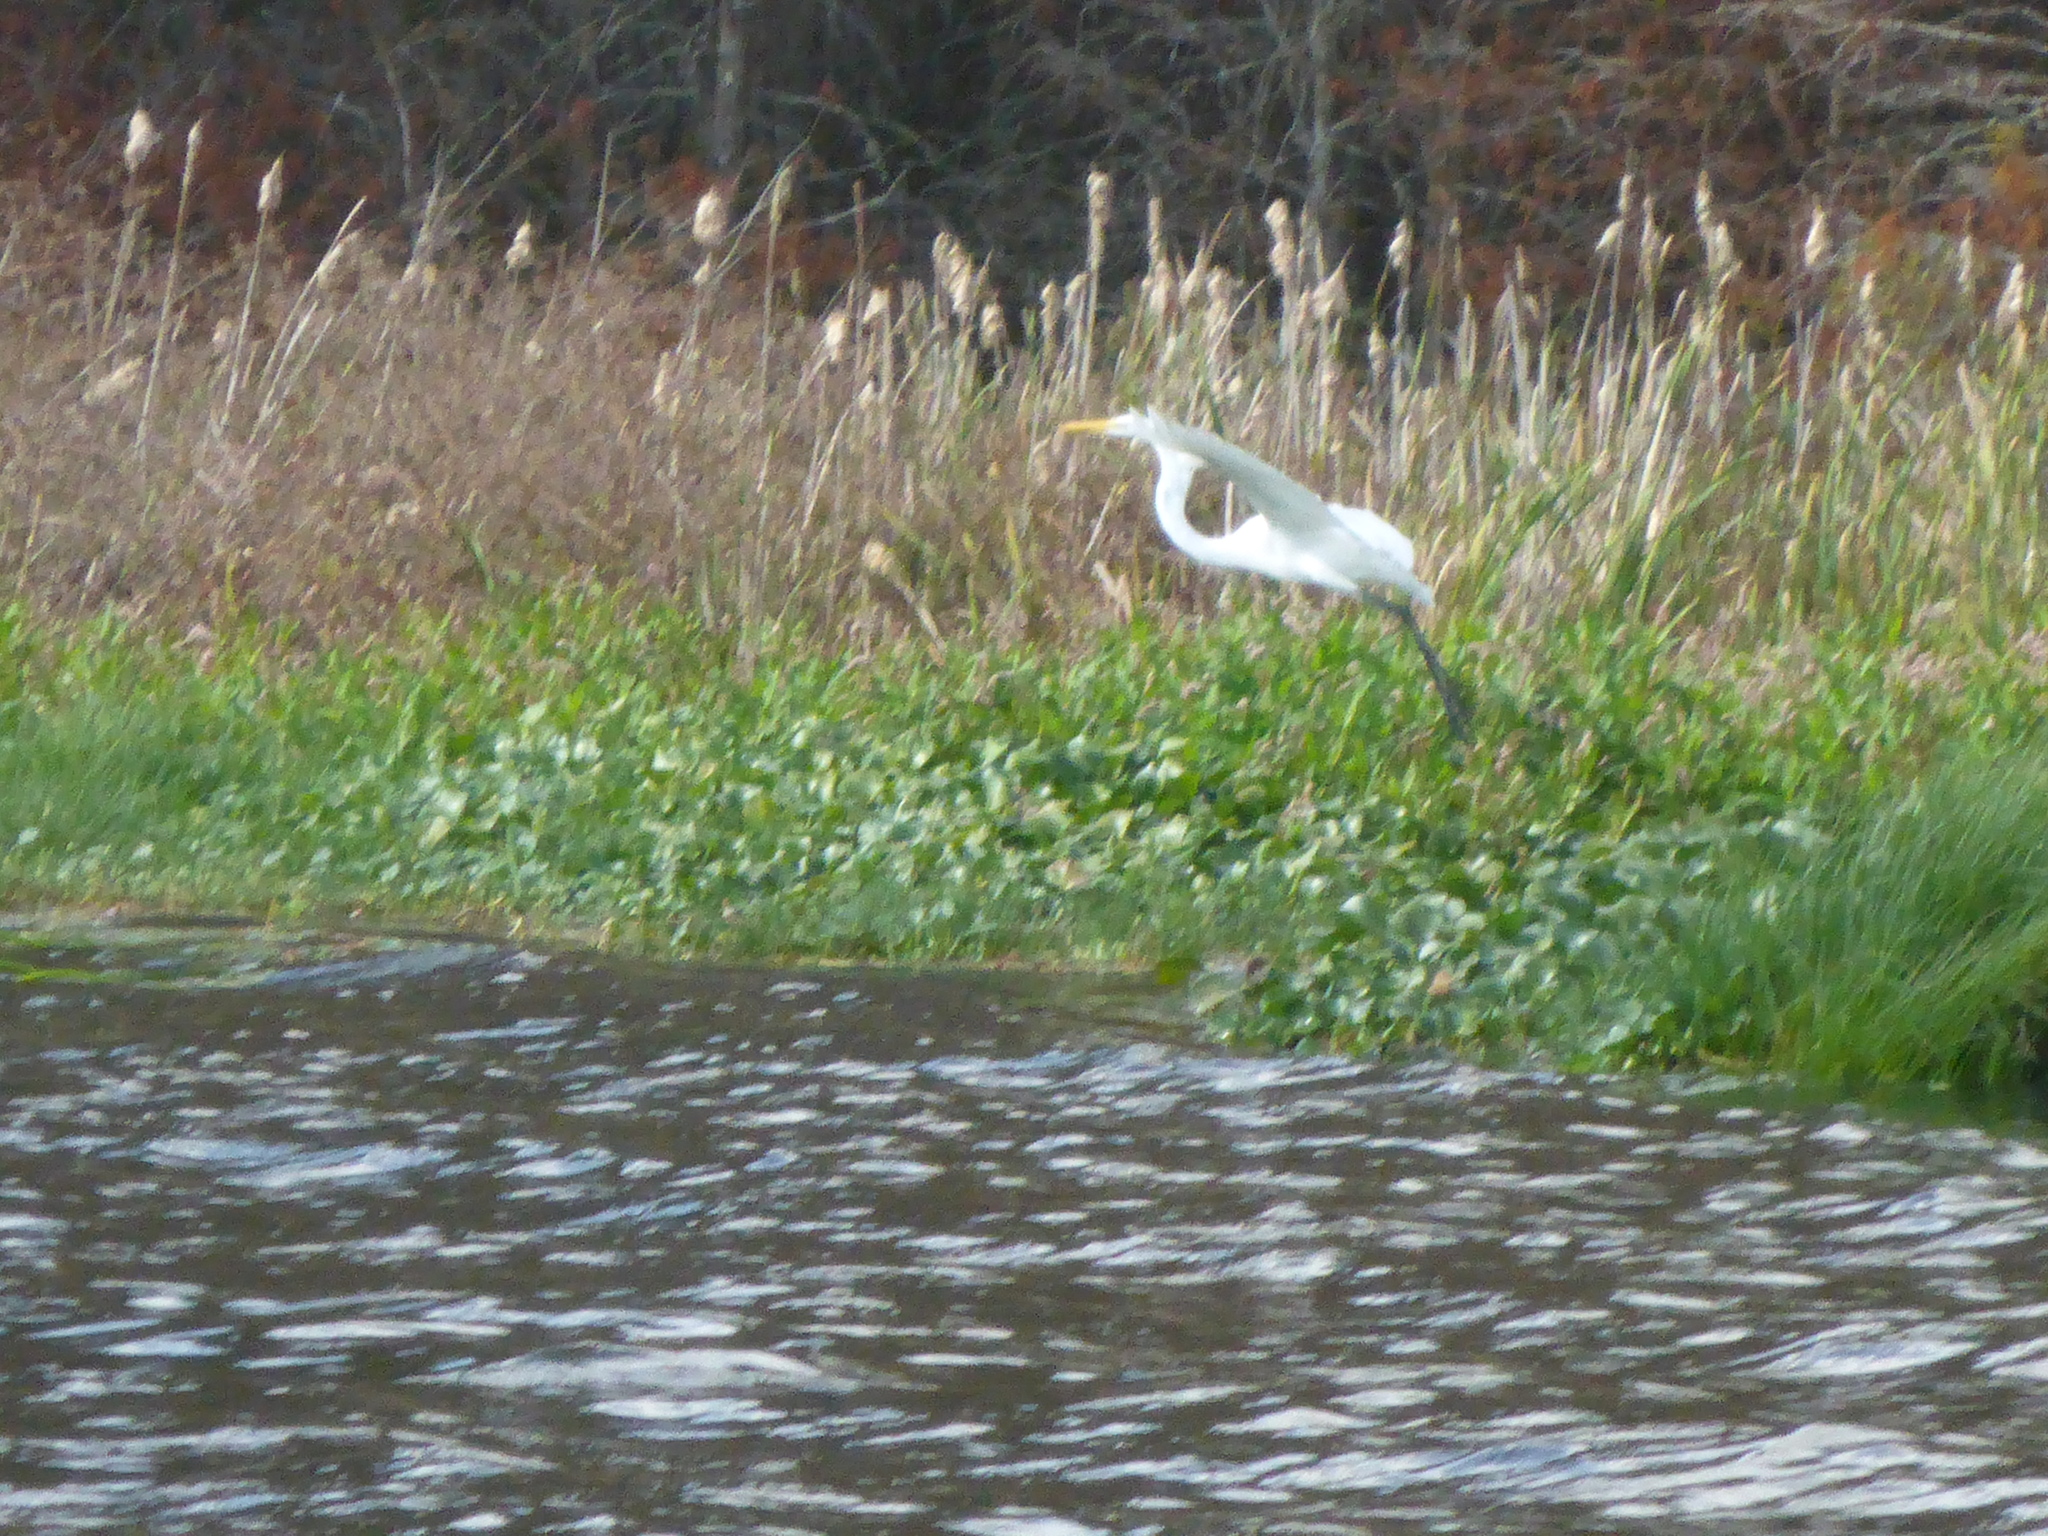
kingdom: Animalia
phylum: Chordata
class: Aves
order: Pelecaniformes
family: Ardeidae
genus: Ardea
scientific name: Ardea alba
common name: Great egret
